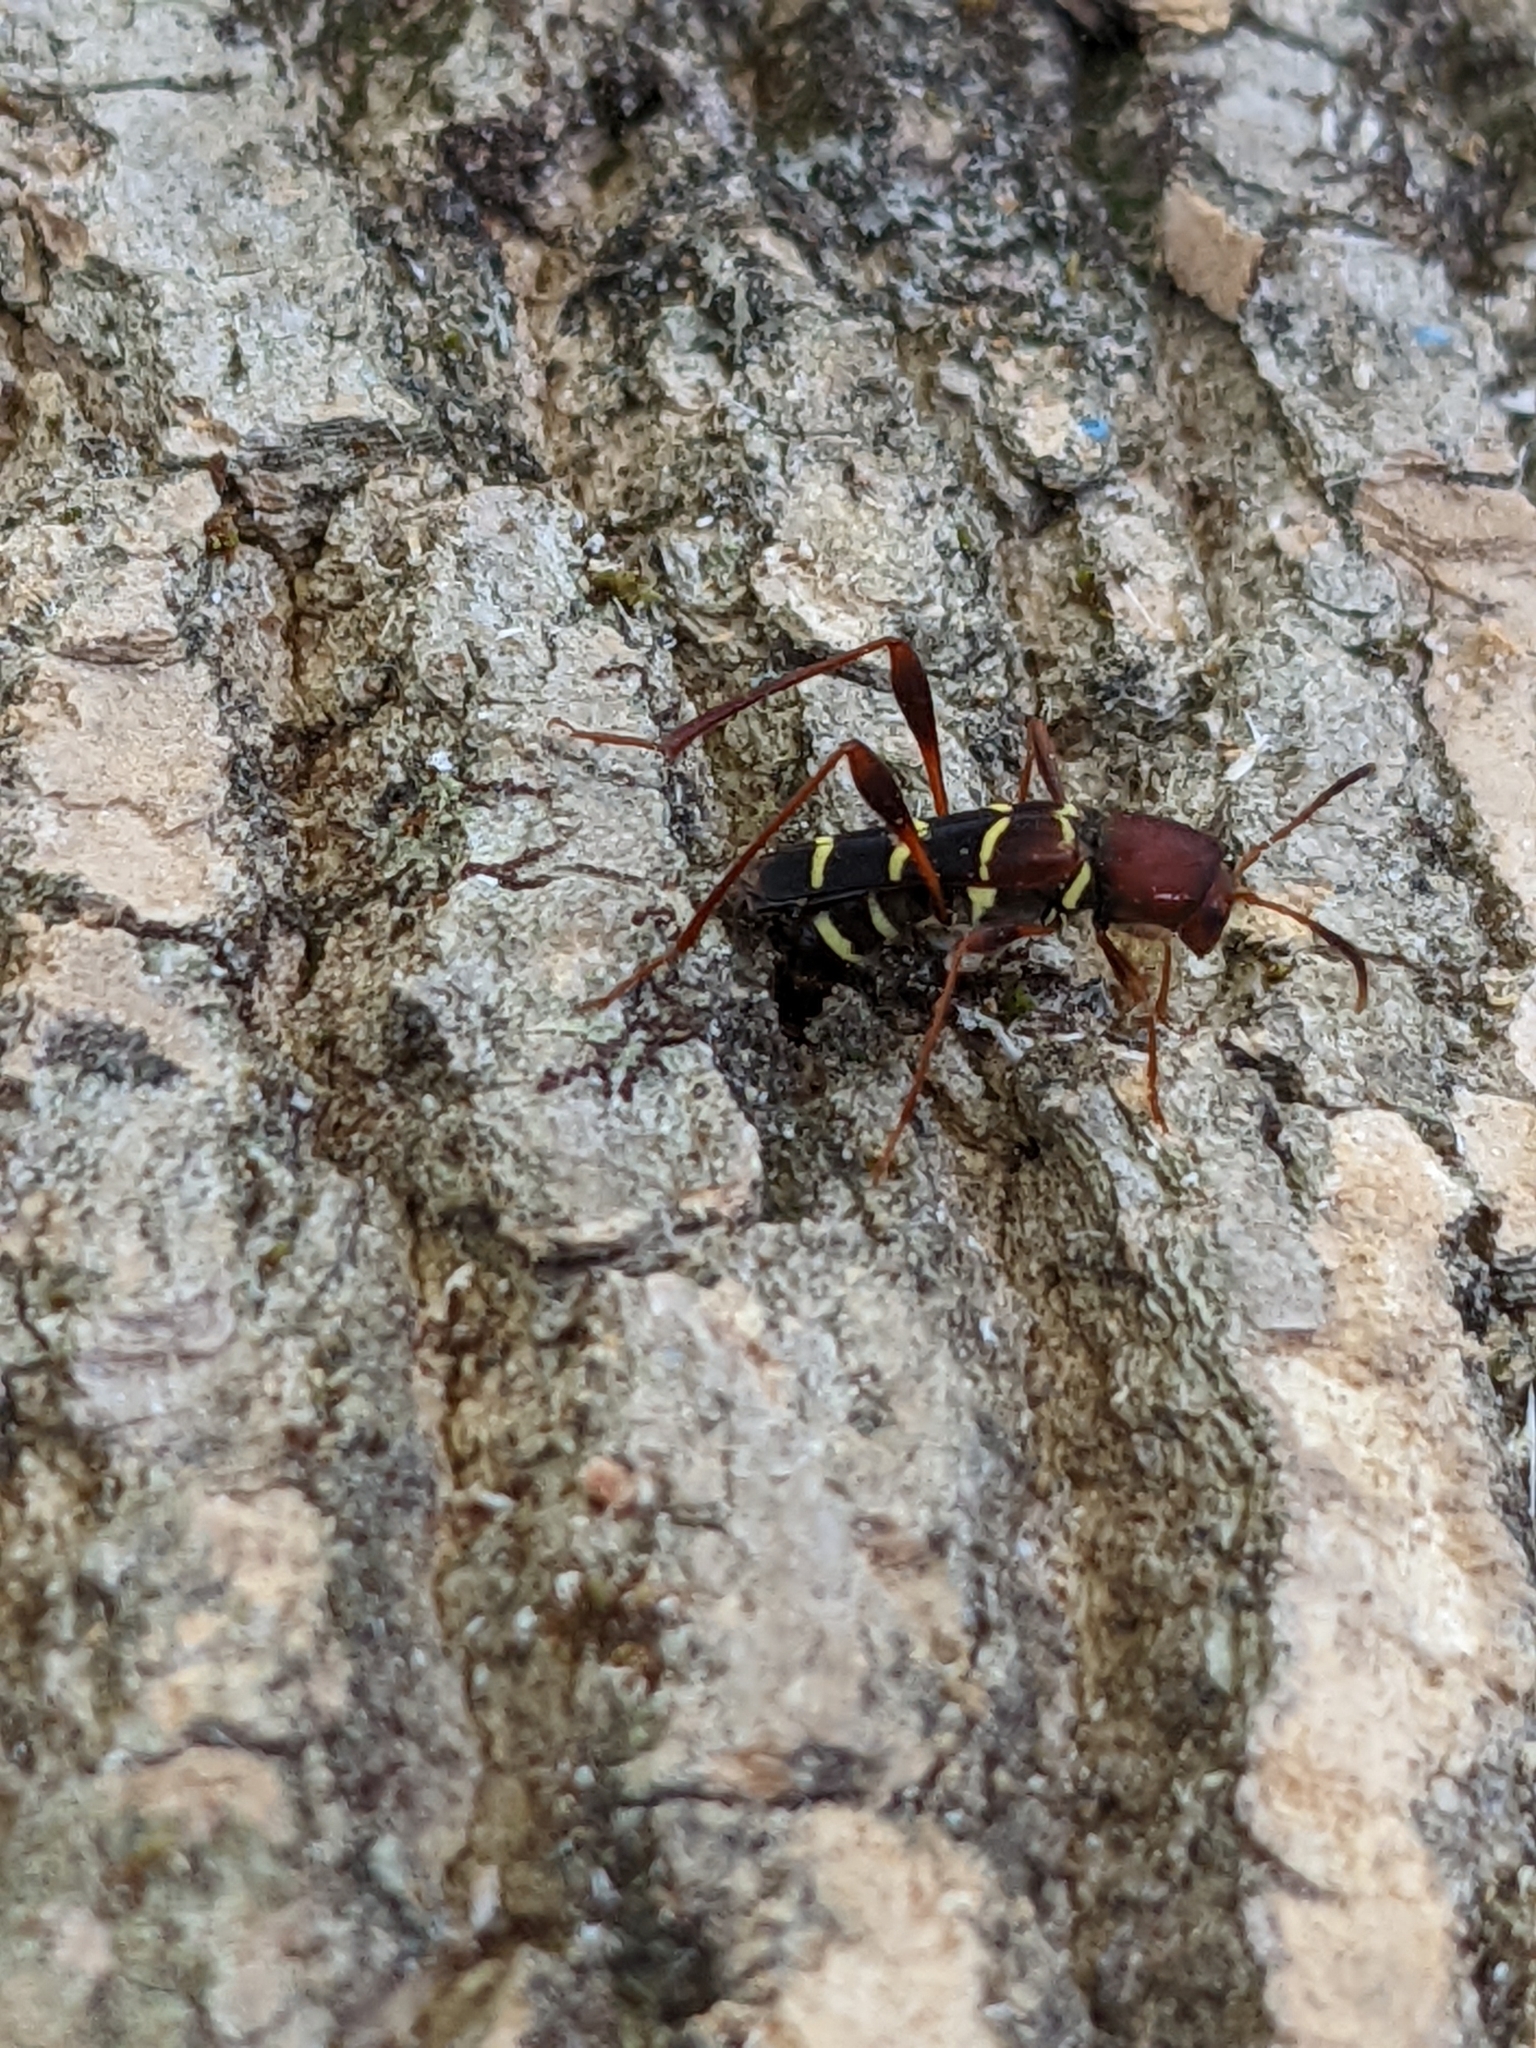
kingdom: Animalia
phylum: Arthropoda
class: Insecta
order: Coleoptera
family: Cerambycidae
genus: Neoclytus
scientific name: Neoclytus acuminatus
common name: Read-headed ash borer
